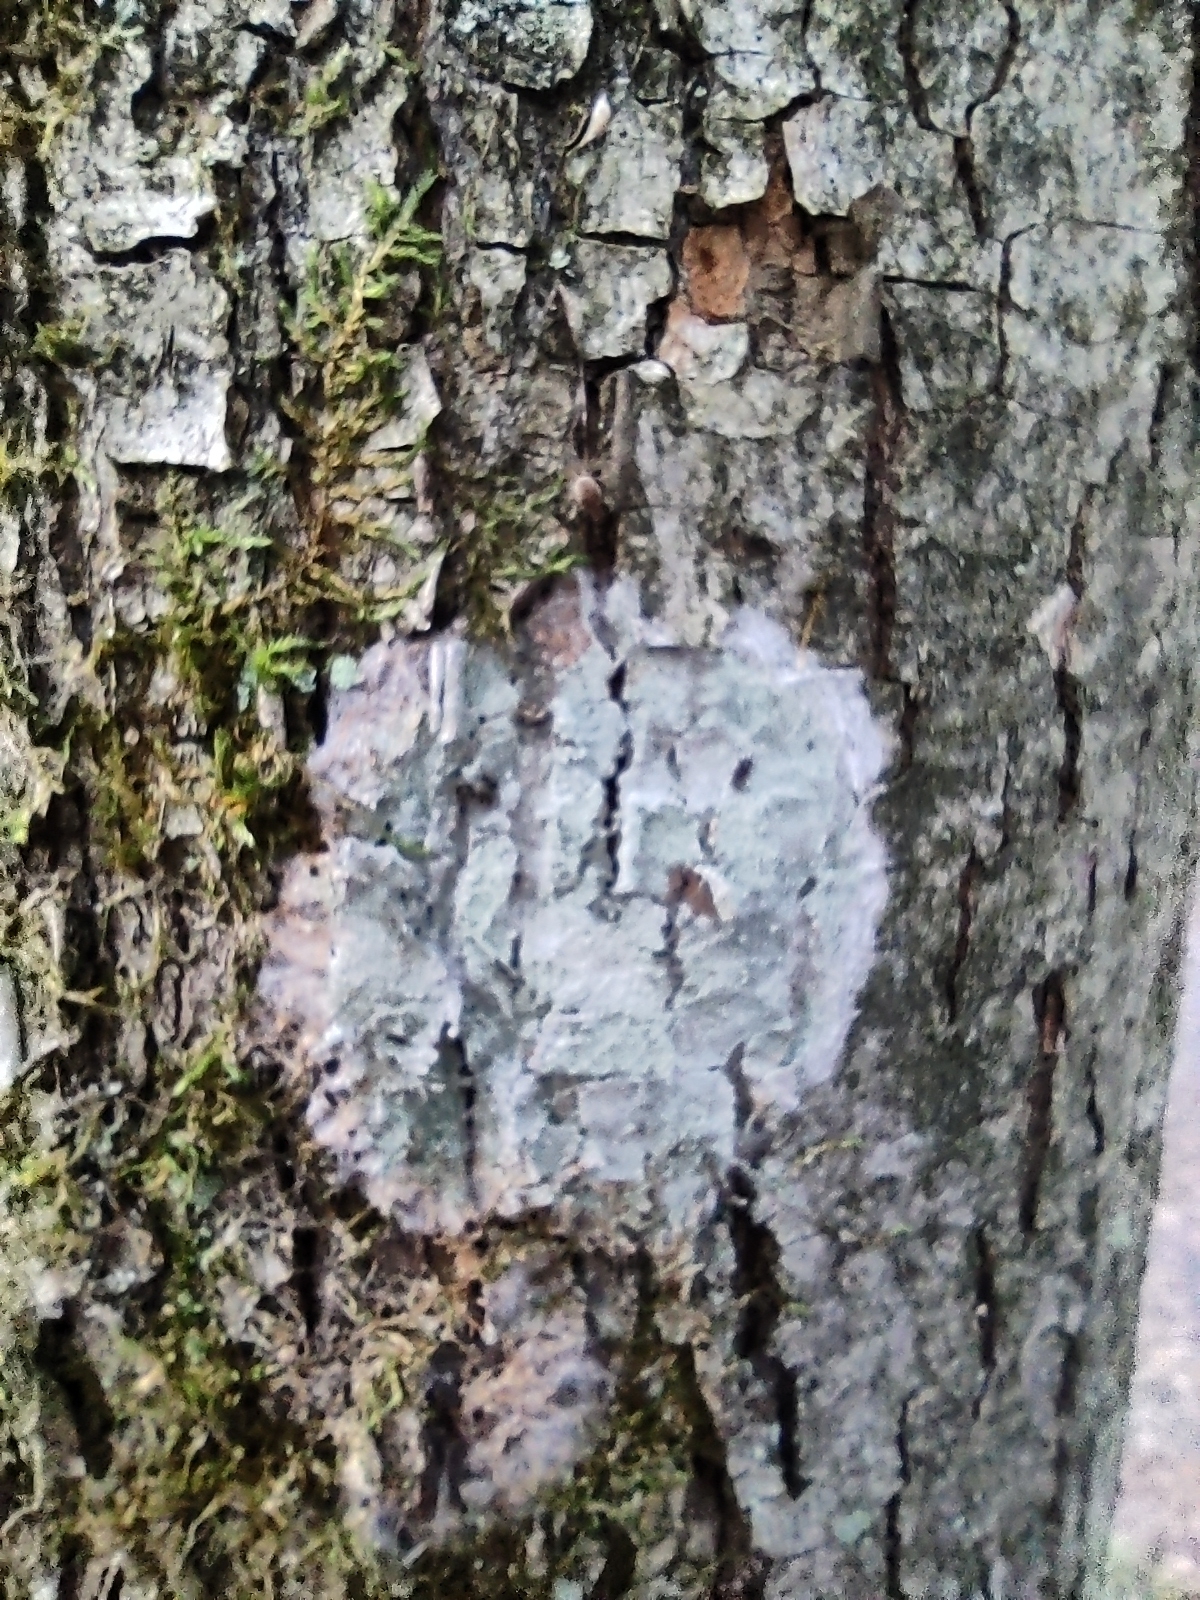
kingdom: Fungi
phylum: Ascomycota
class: Lecanoromycetes
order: Ostropales
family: Phlyctidaceae
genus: Phlyctis
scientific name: Phlyctis argena
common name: Whitewash lichen
